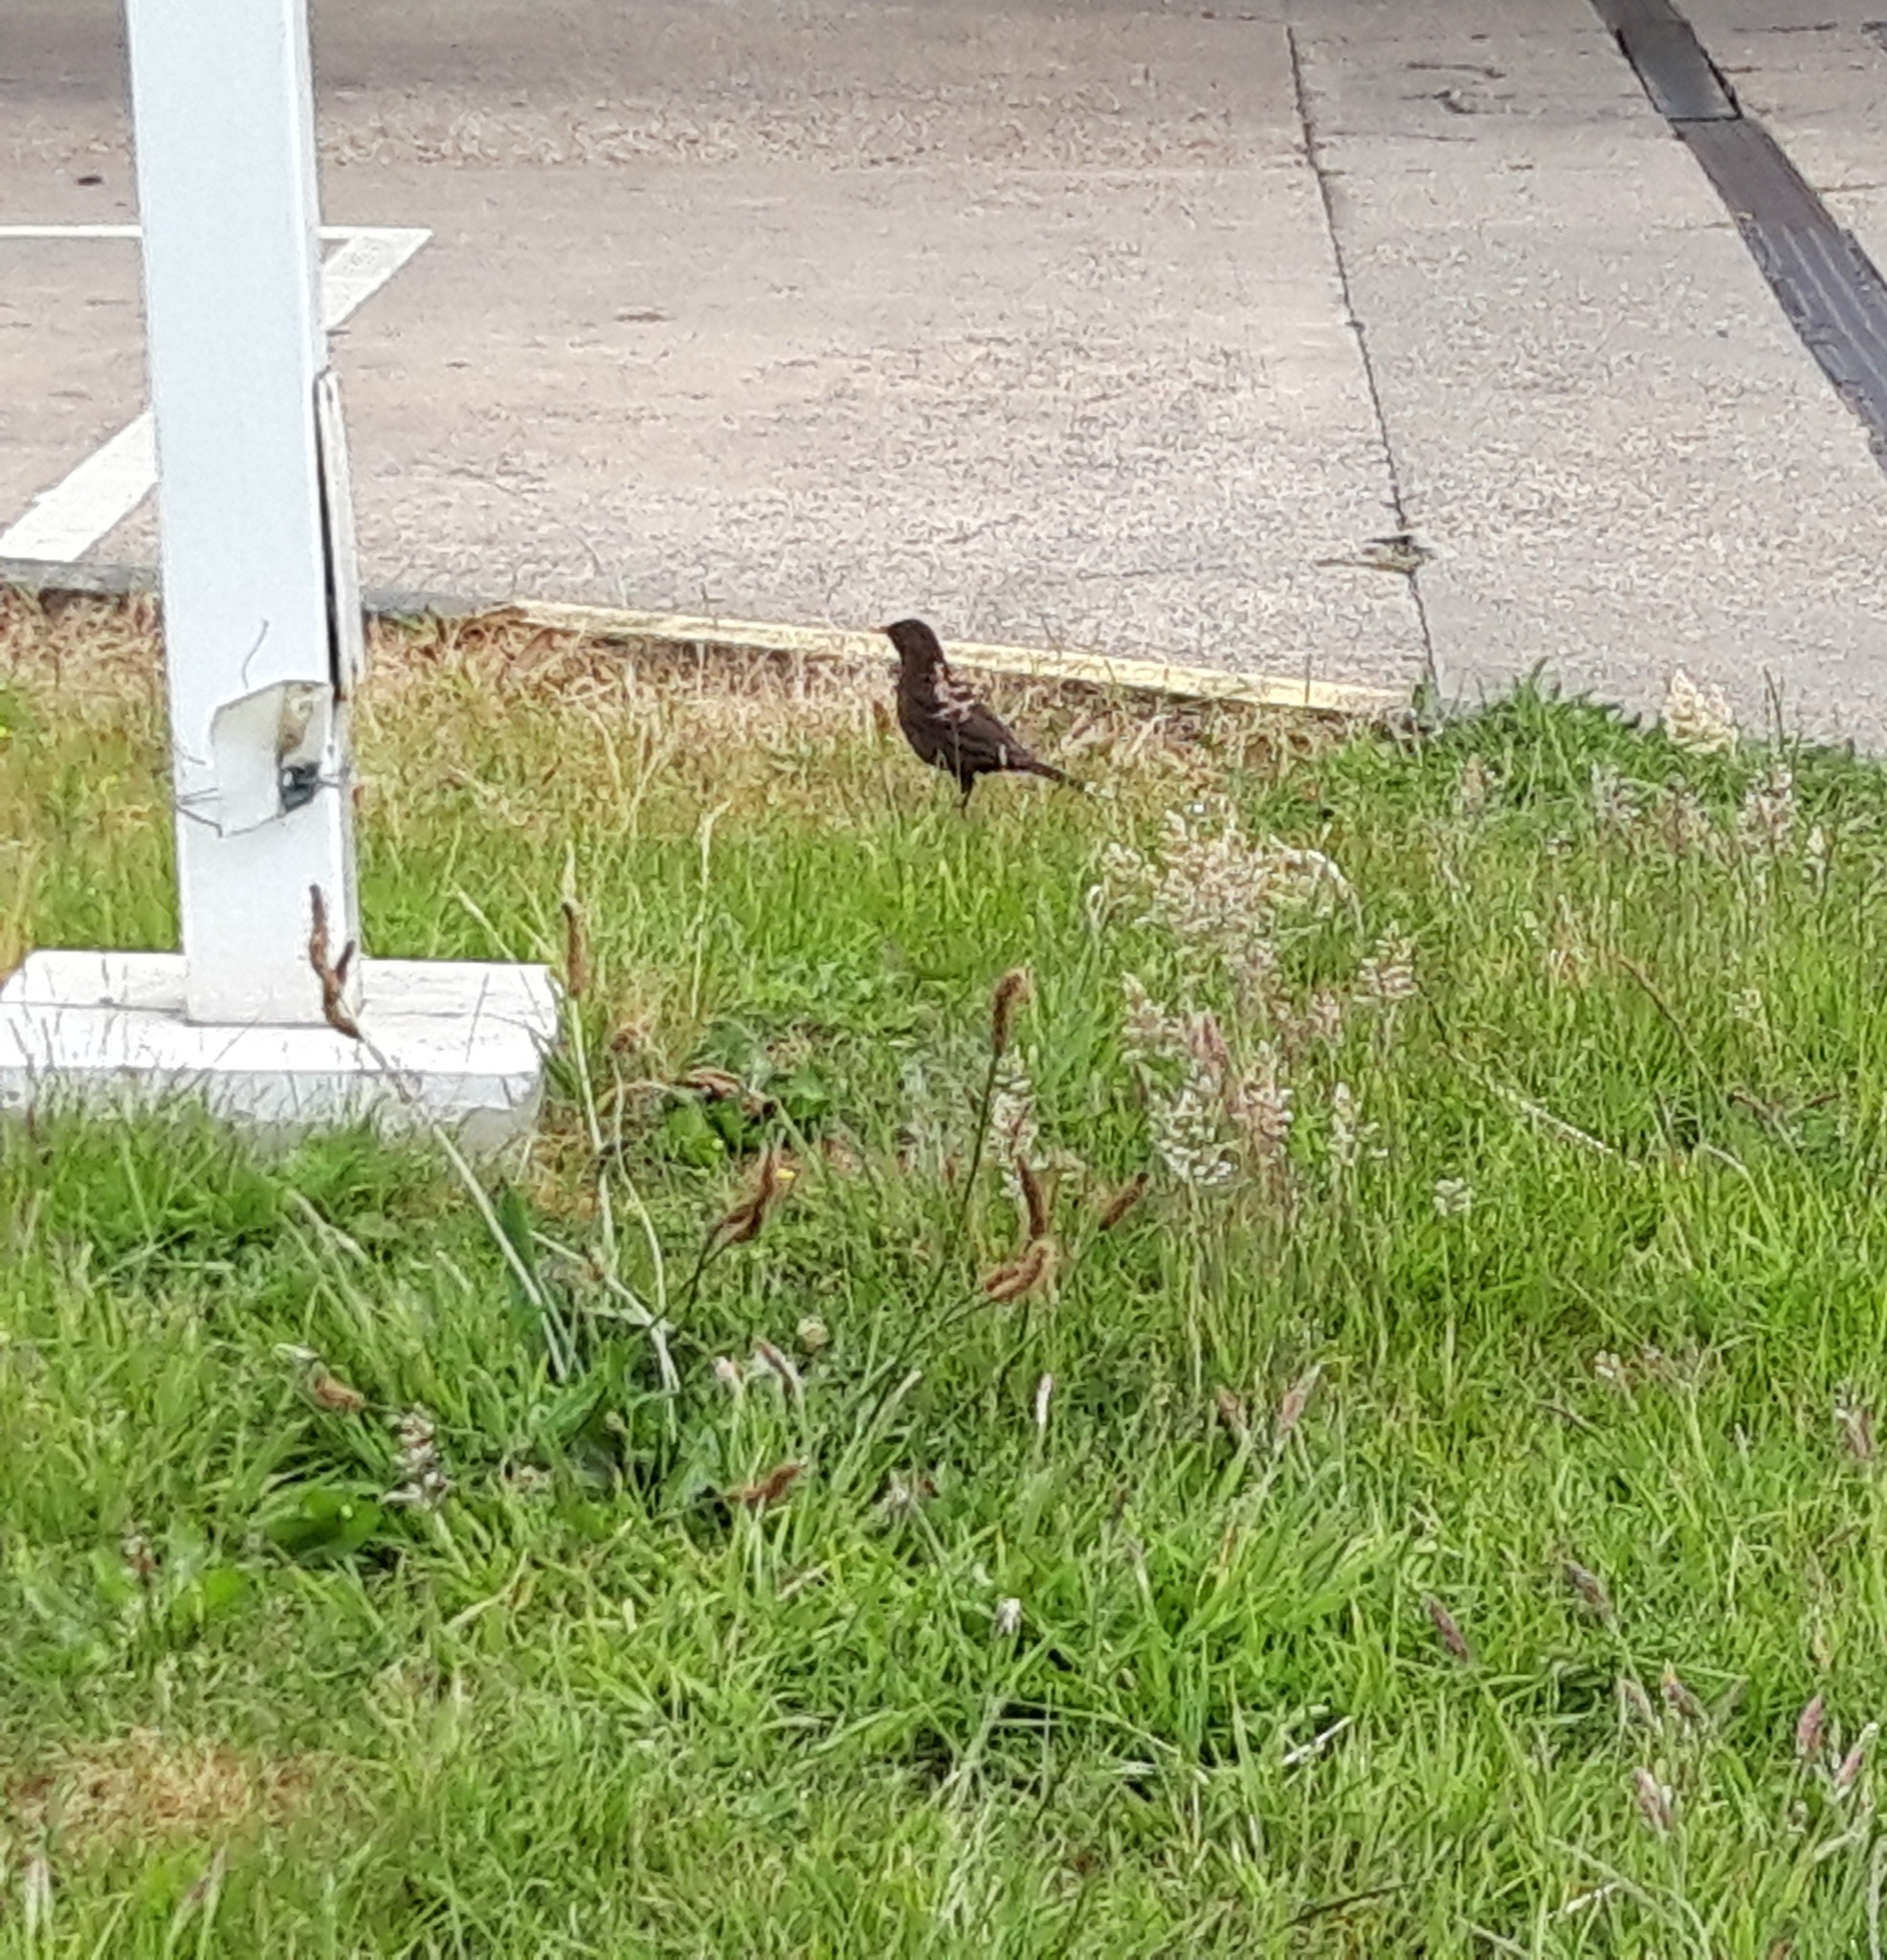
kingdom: Animalia
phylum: Chordata
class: Aves
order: Passeriformes
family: Turdidae
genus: Turdus
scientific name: Turdus merula
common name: Common blackbird
